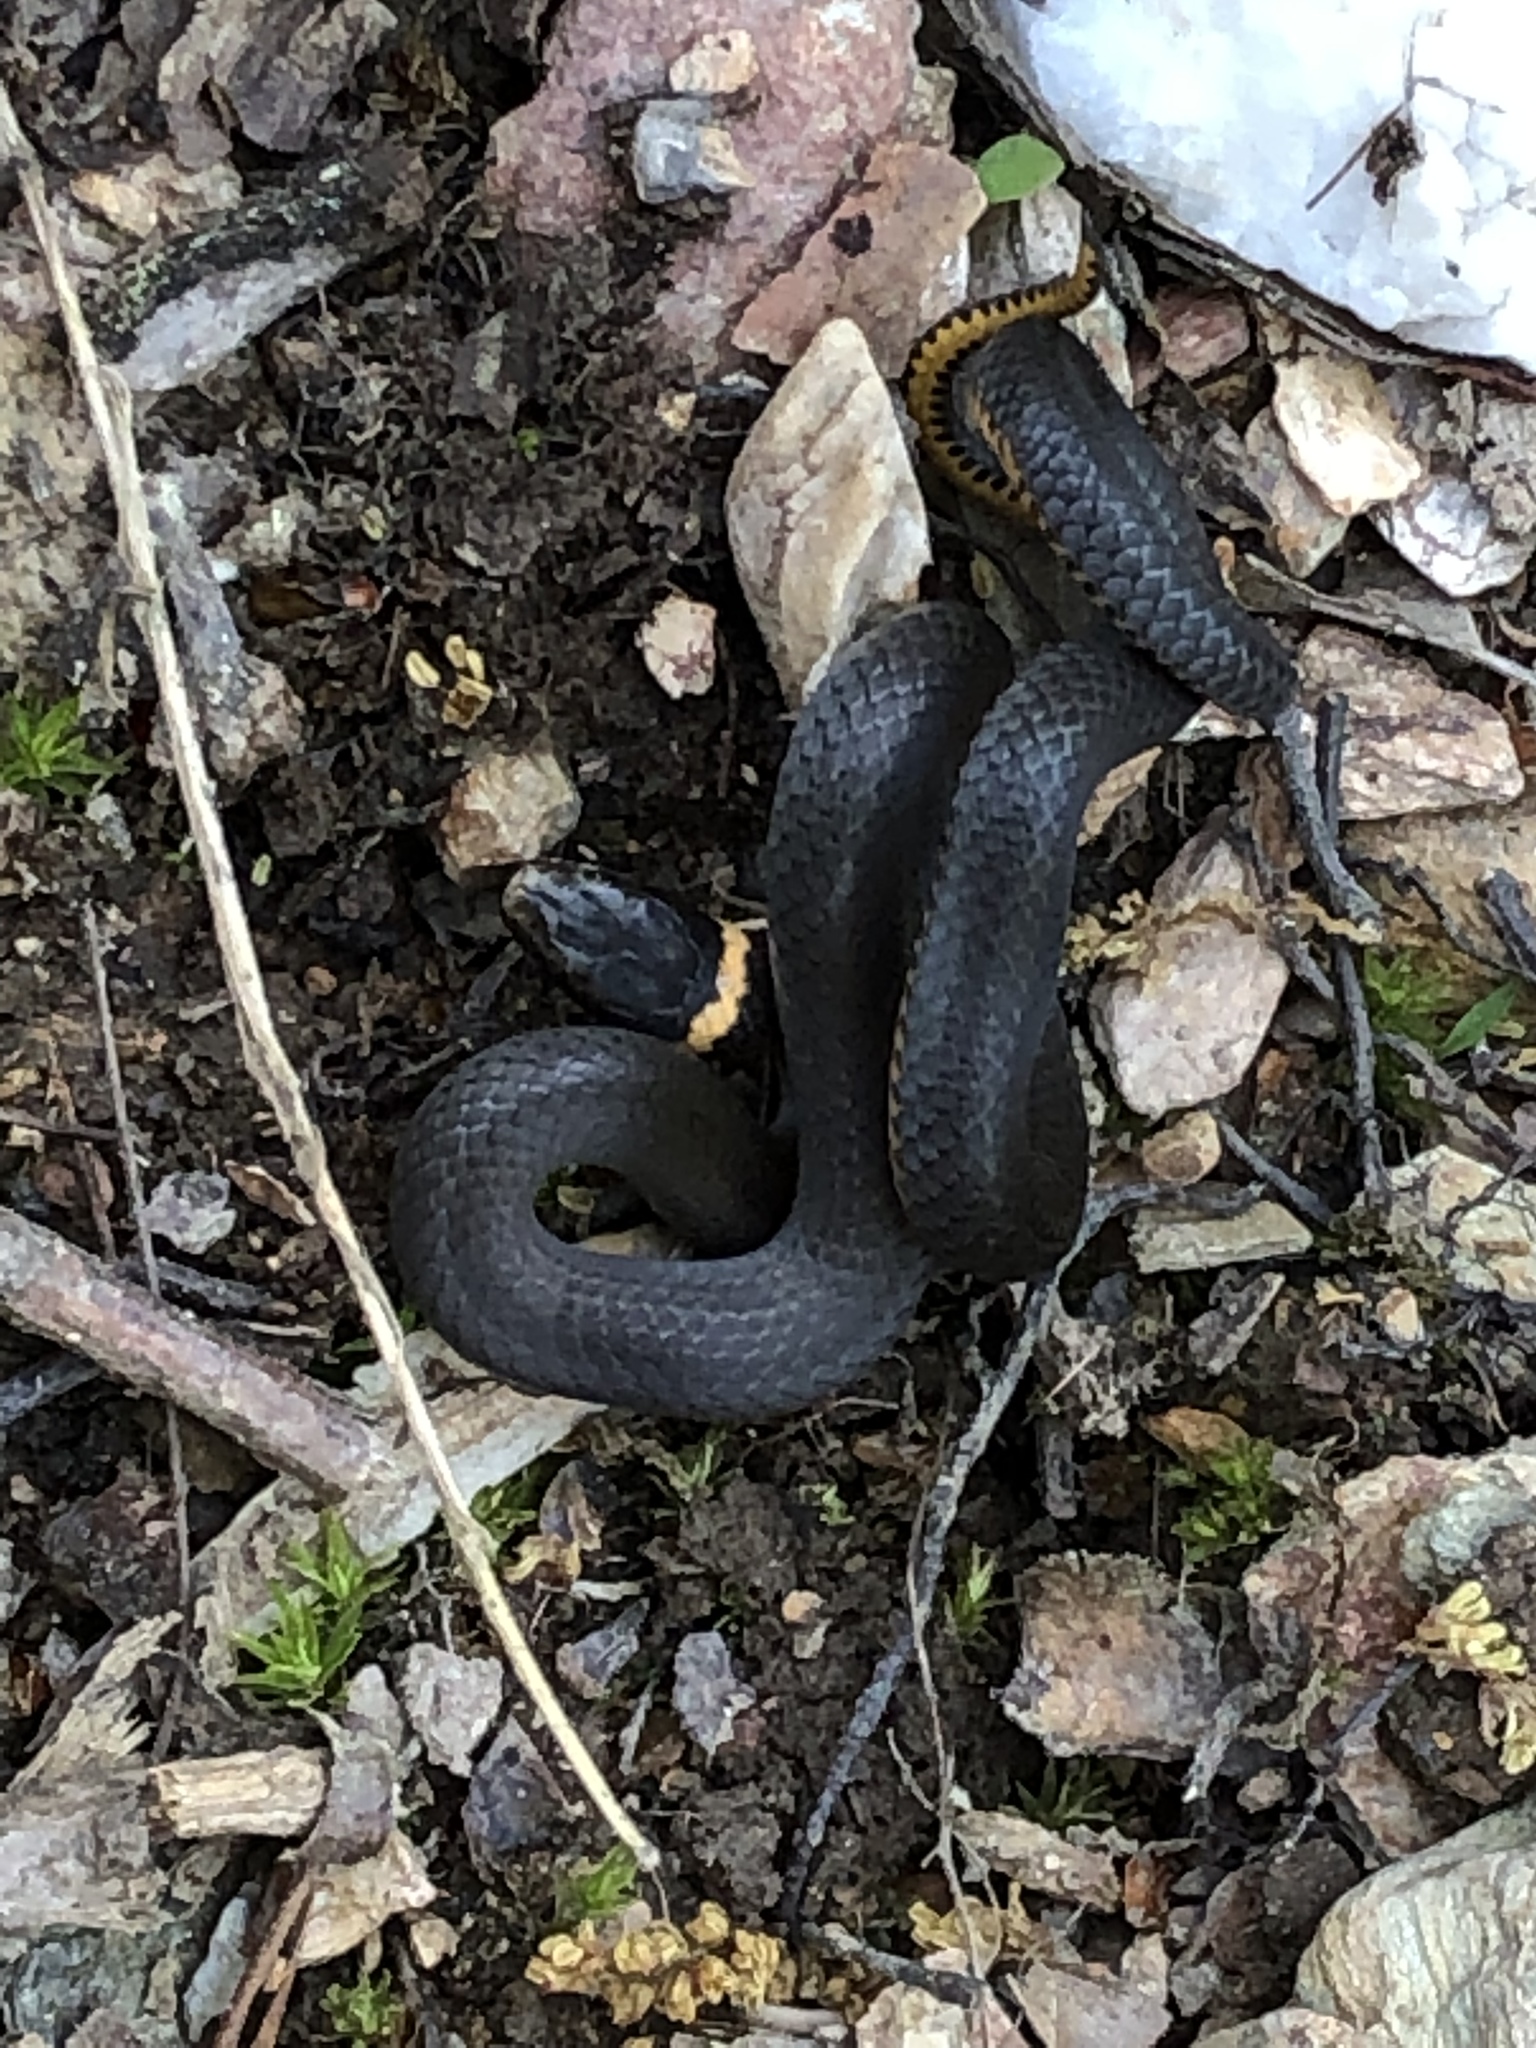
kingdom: Animalia
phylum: Chordata
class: Squamata
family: Colubridae
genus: Diadophis
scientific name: Diadophis punctatus
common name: Ringneck snake
